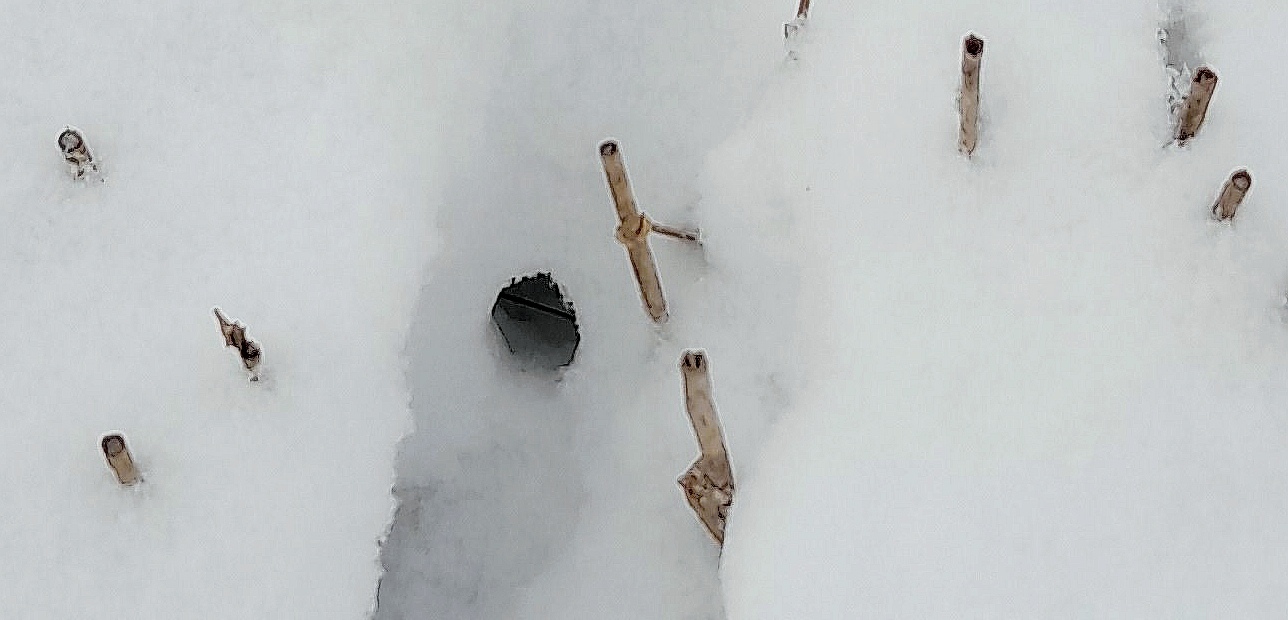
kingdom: Animalia
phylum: Chordata
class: Mammalia
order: Carnivora
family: Canidae
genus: Vulpes
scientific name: Vulpes vulpes
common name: Red fox
